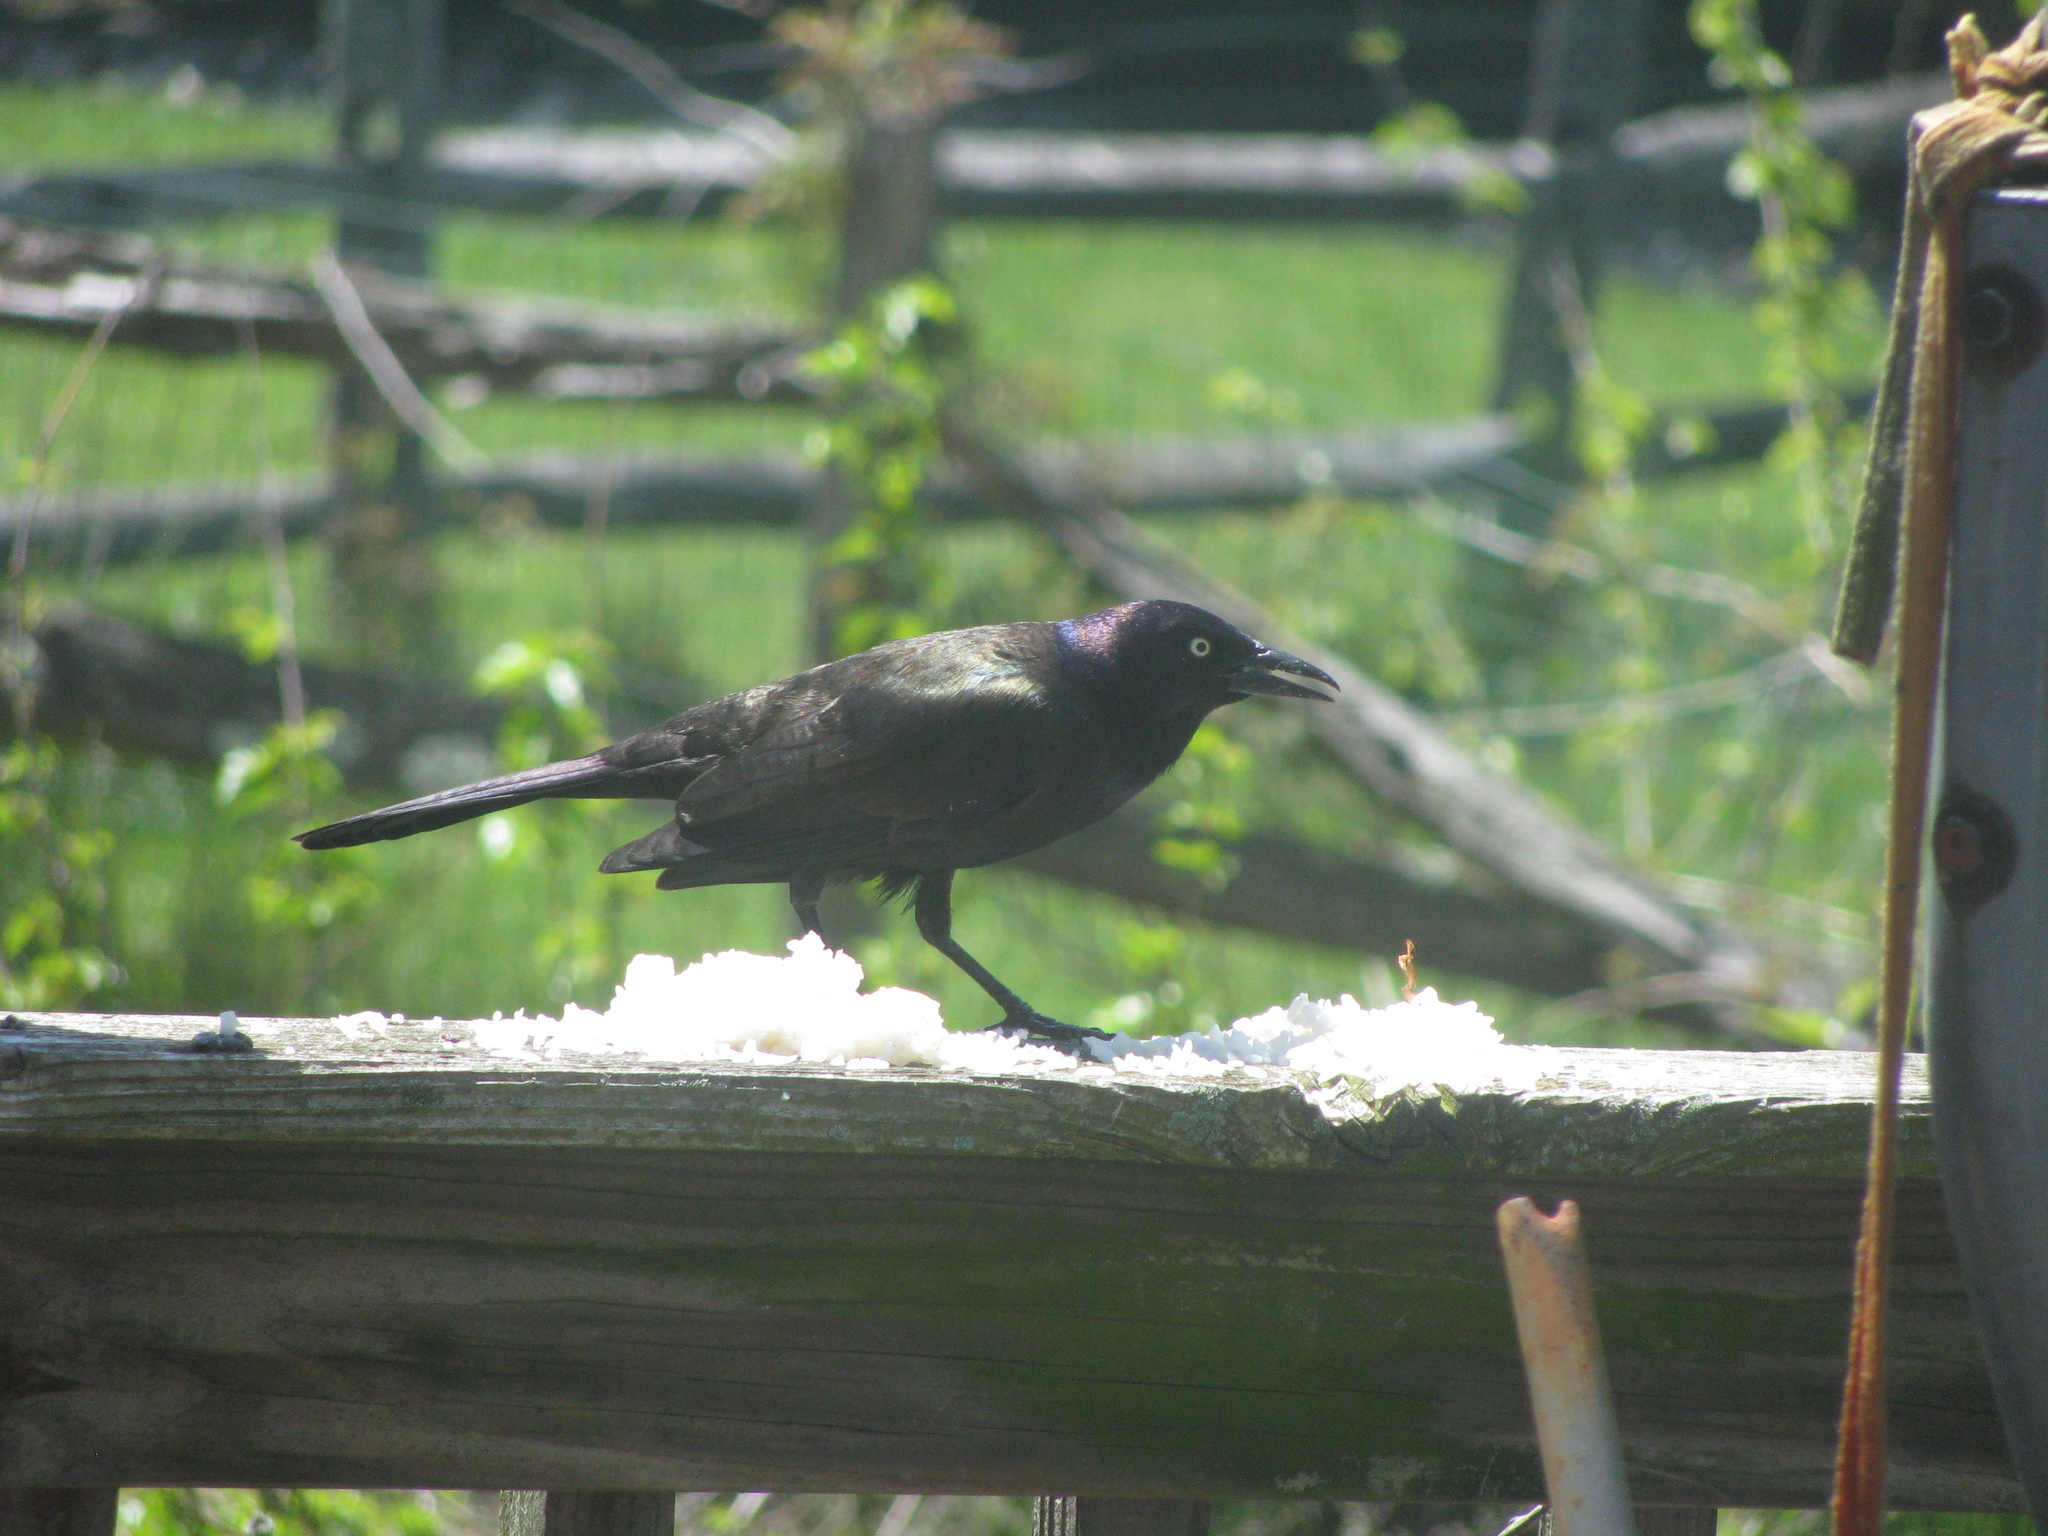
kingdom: Animalia
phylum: Chordata
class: Aves
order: Passeriformes
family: Icteridae
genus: Quiscalus
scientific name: Quiscalus quiscula
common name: Common grackle
